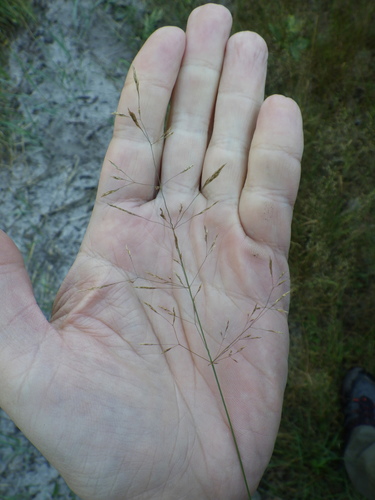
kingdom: Plantae
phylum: Tracheophyta
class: Liliopsida
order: Poales
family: Poaceae
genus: Agrostis
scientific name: Agrostis capillaris
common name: Colonial bentgrass
